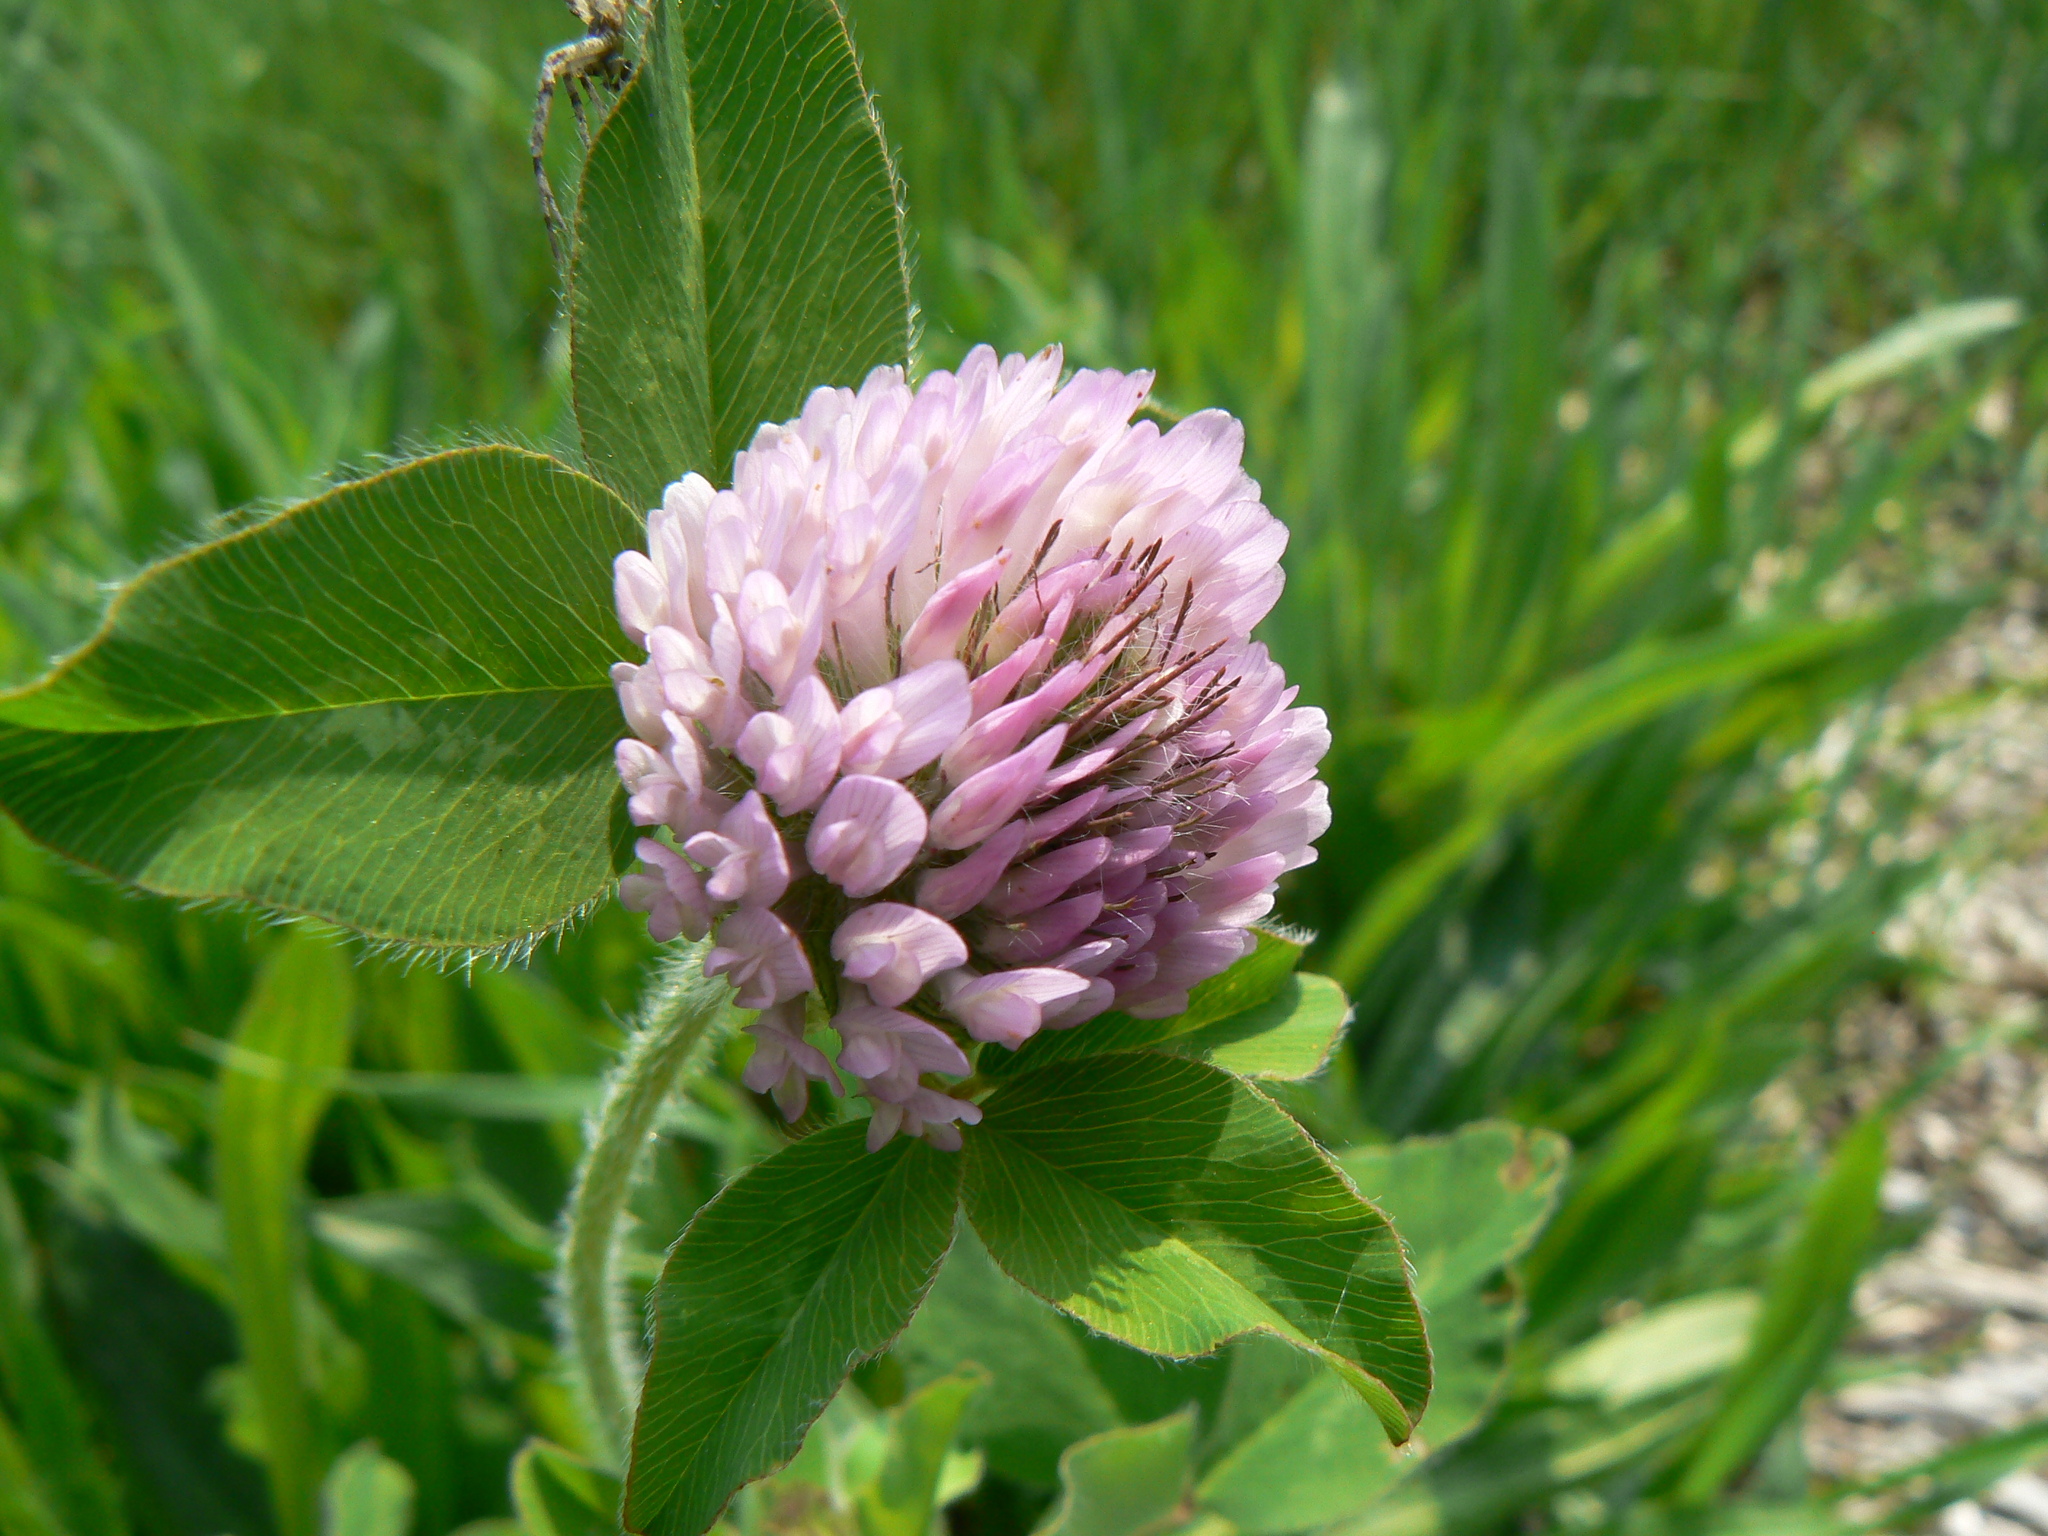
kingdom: Plantae
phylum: Tracheophyta
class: Magnoliopsida
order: Fabales
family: Fabaceae
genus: Trifolium
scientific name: Trifolium pratense
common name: Red clover
